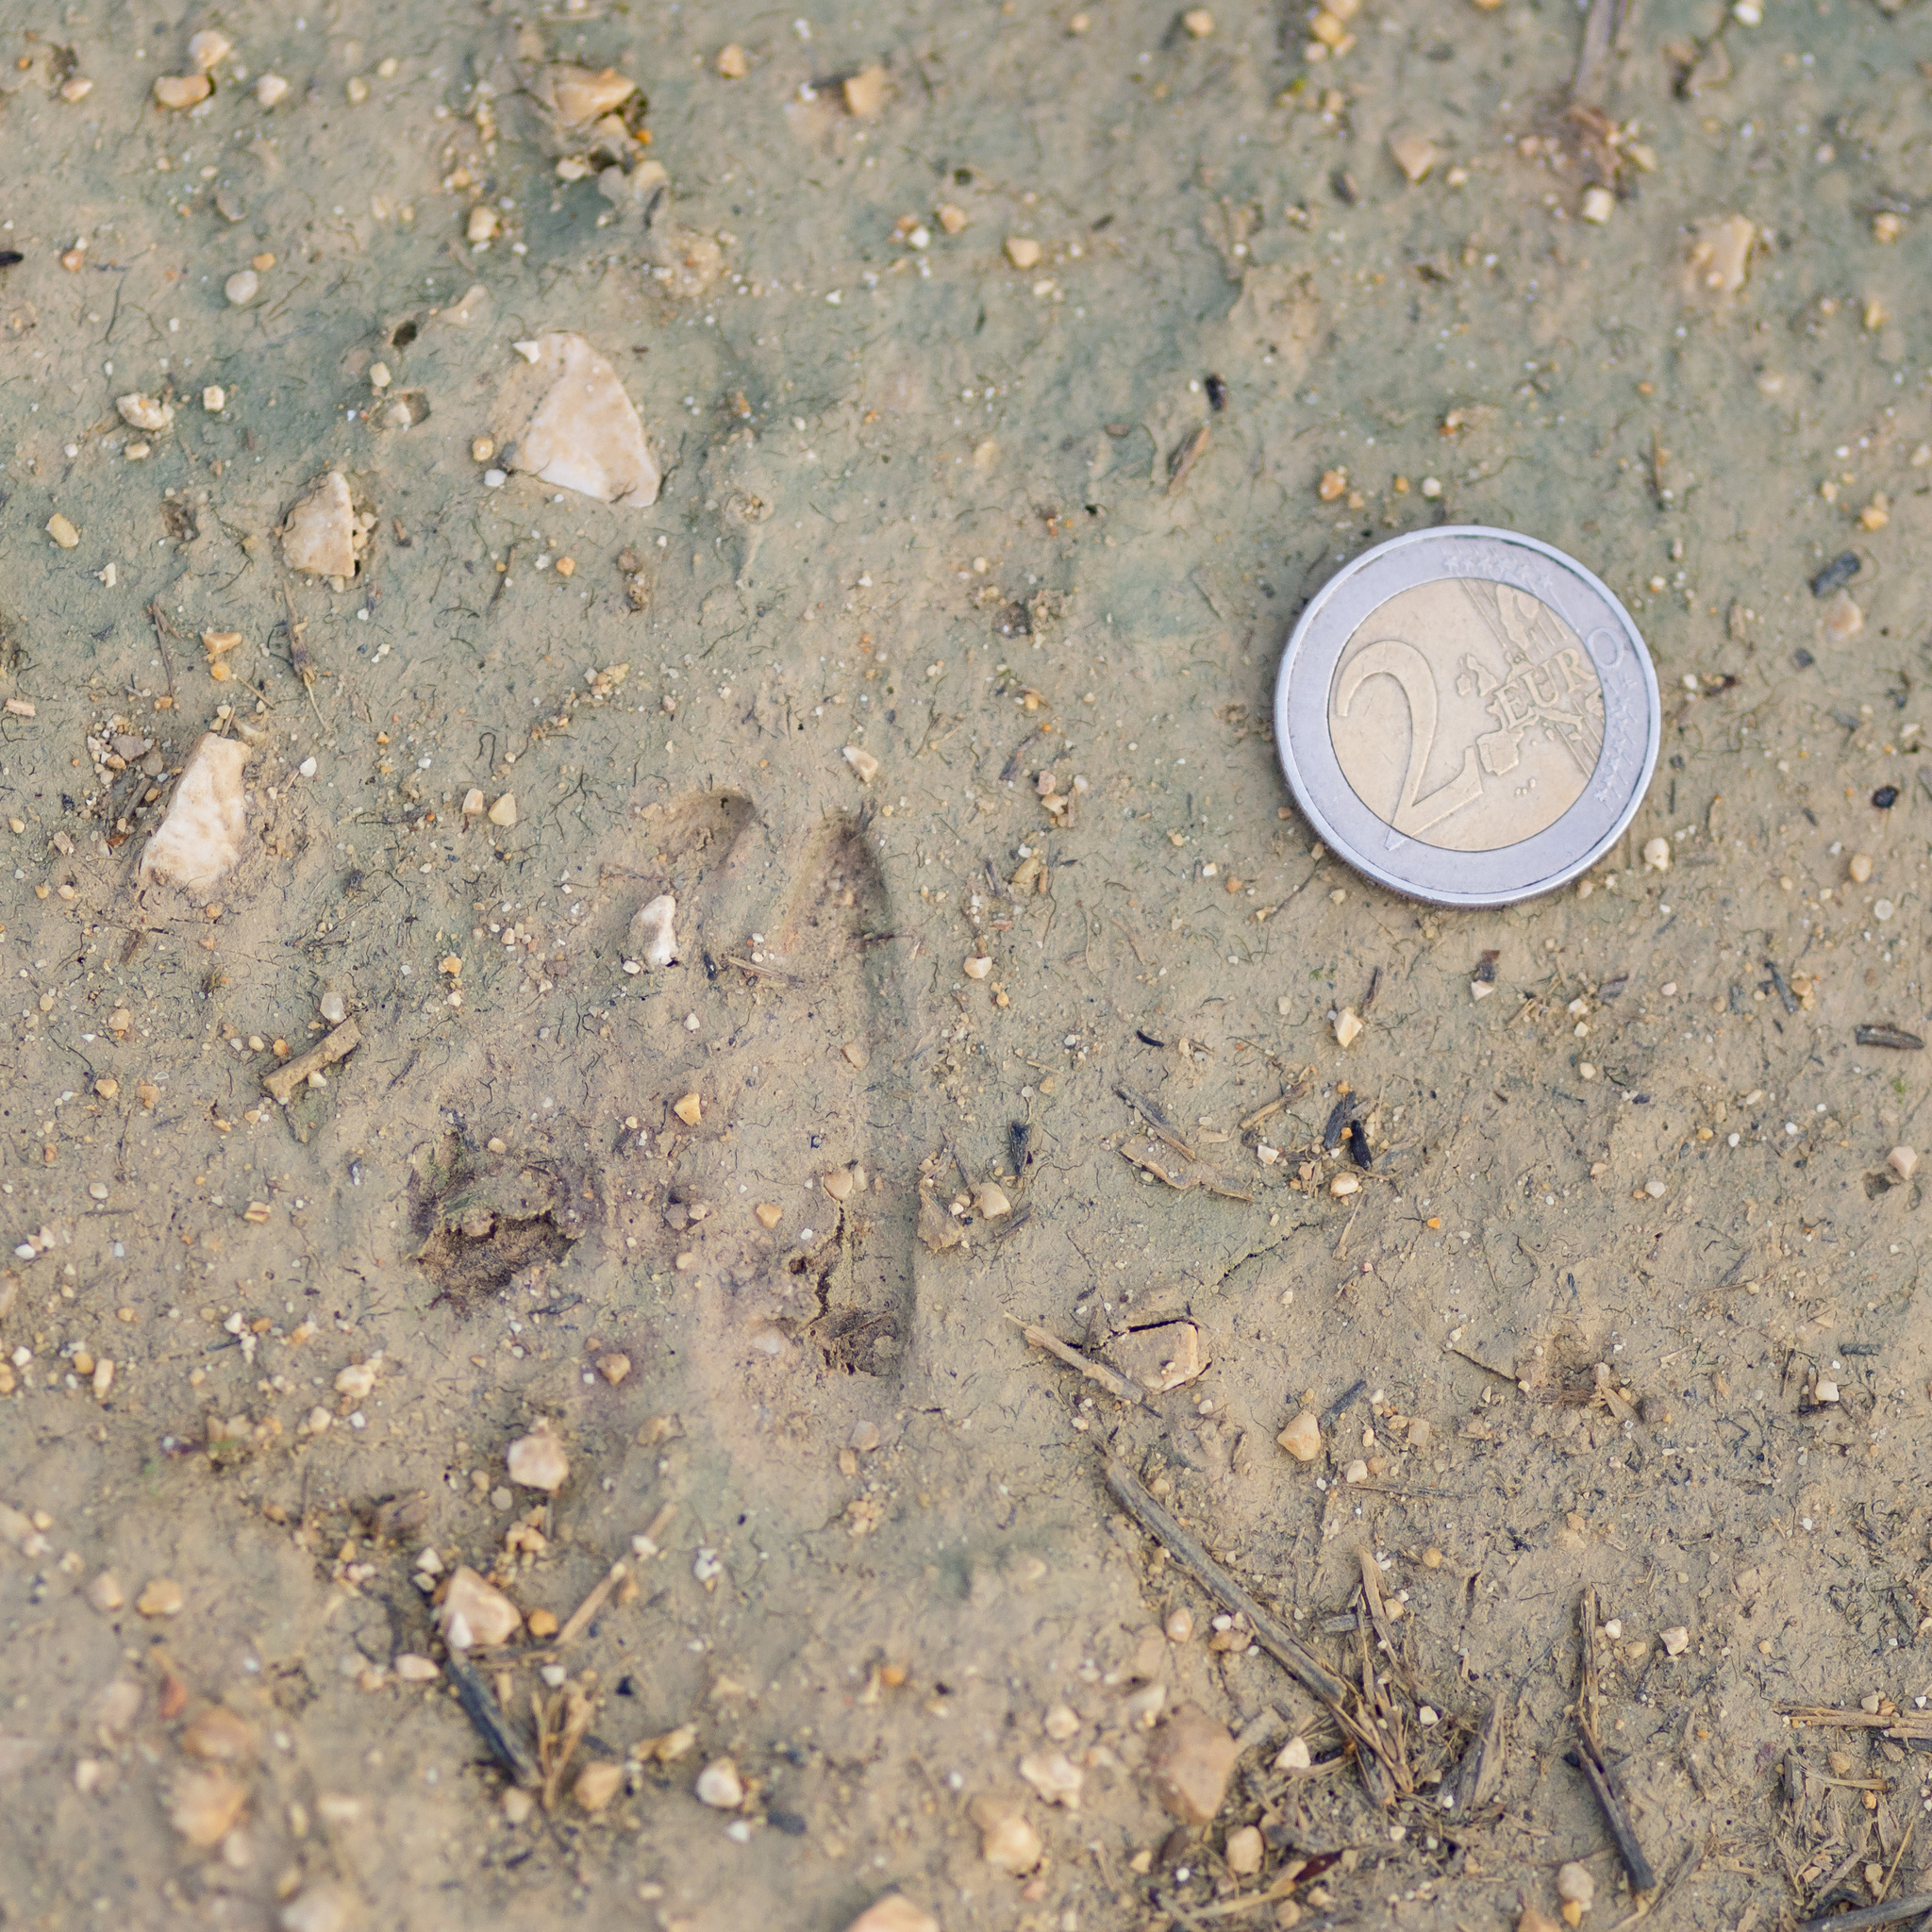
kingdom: Animalia
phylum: Chordata
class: Mammalia
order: Artiodactyla
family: Cervidae
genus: Capreolus
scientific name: Capreolus capreolus
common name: Western roe deer
